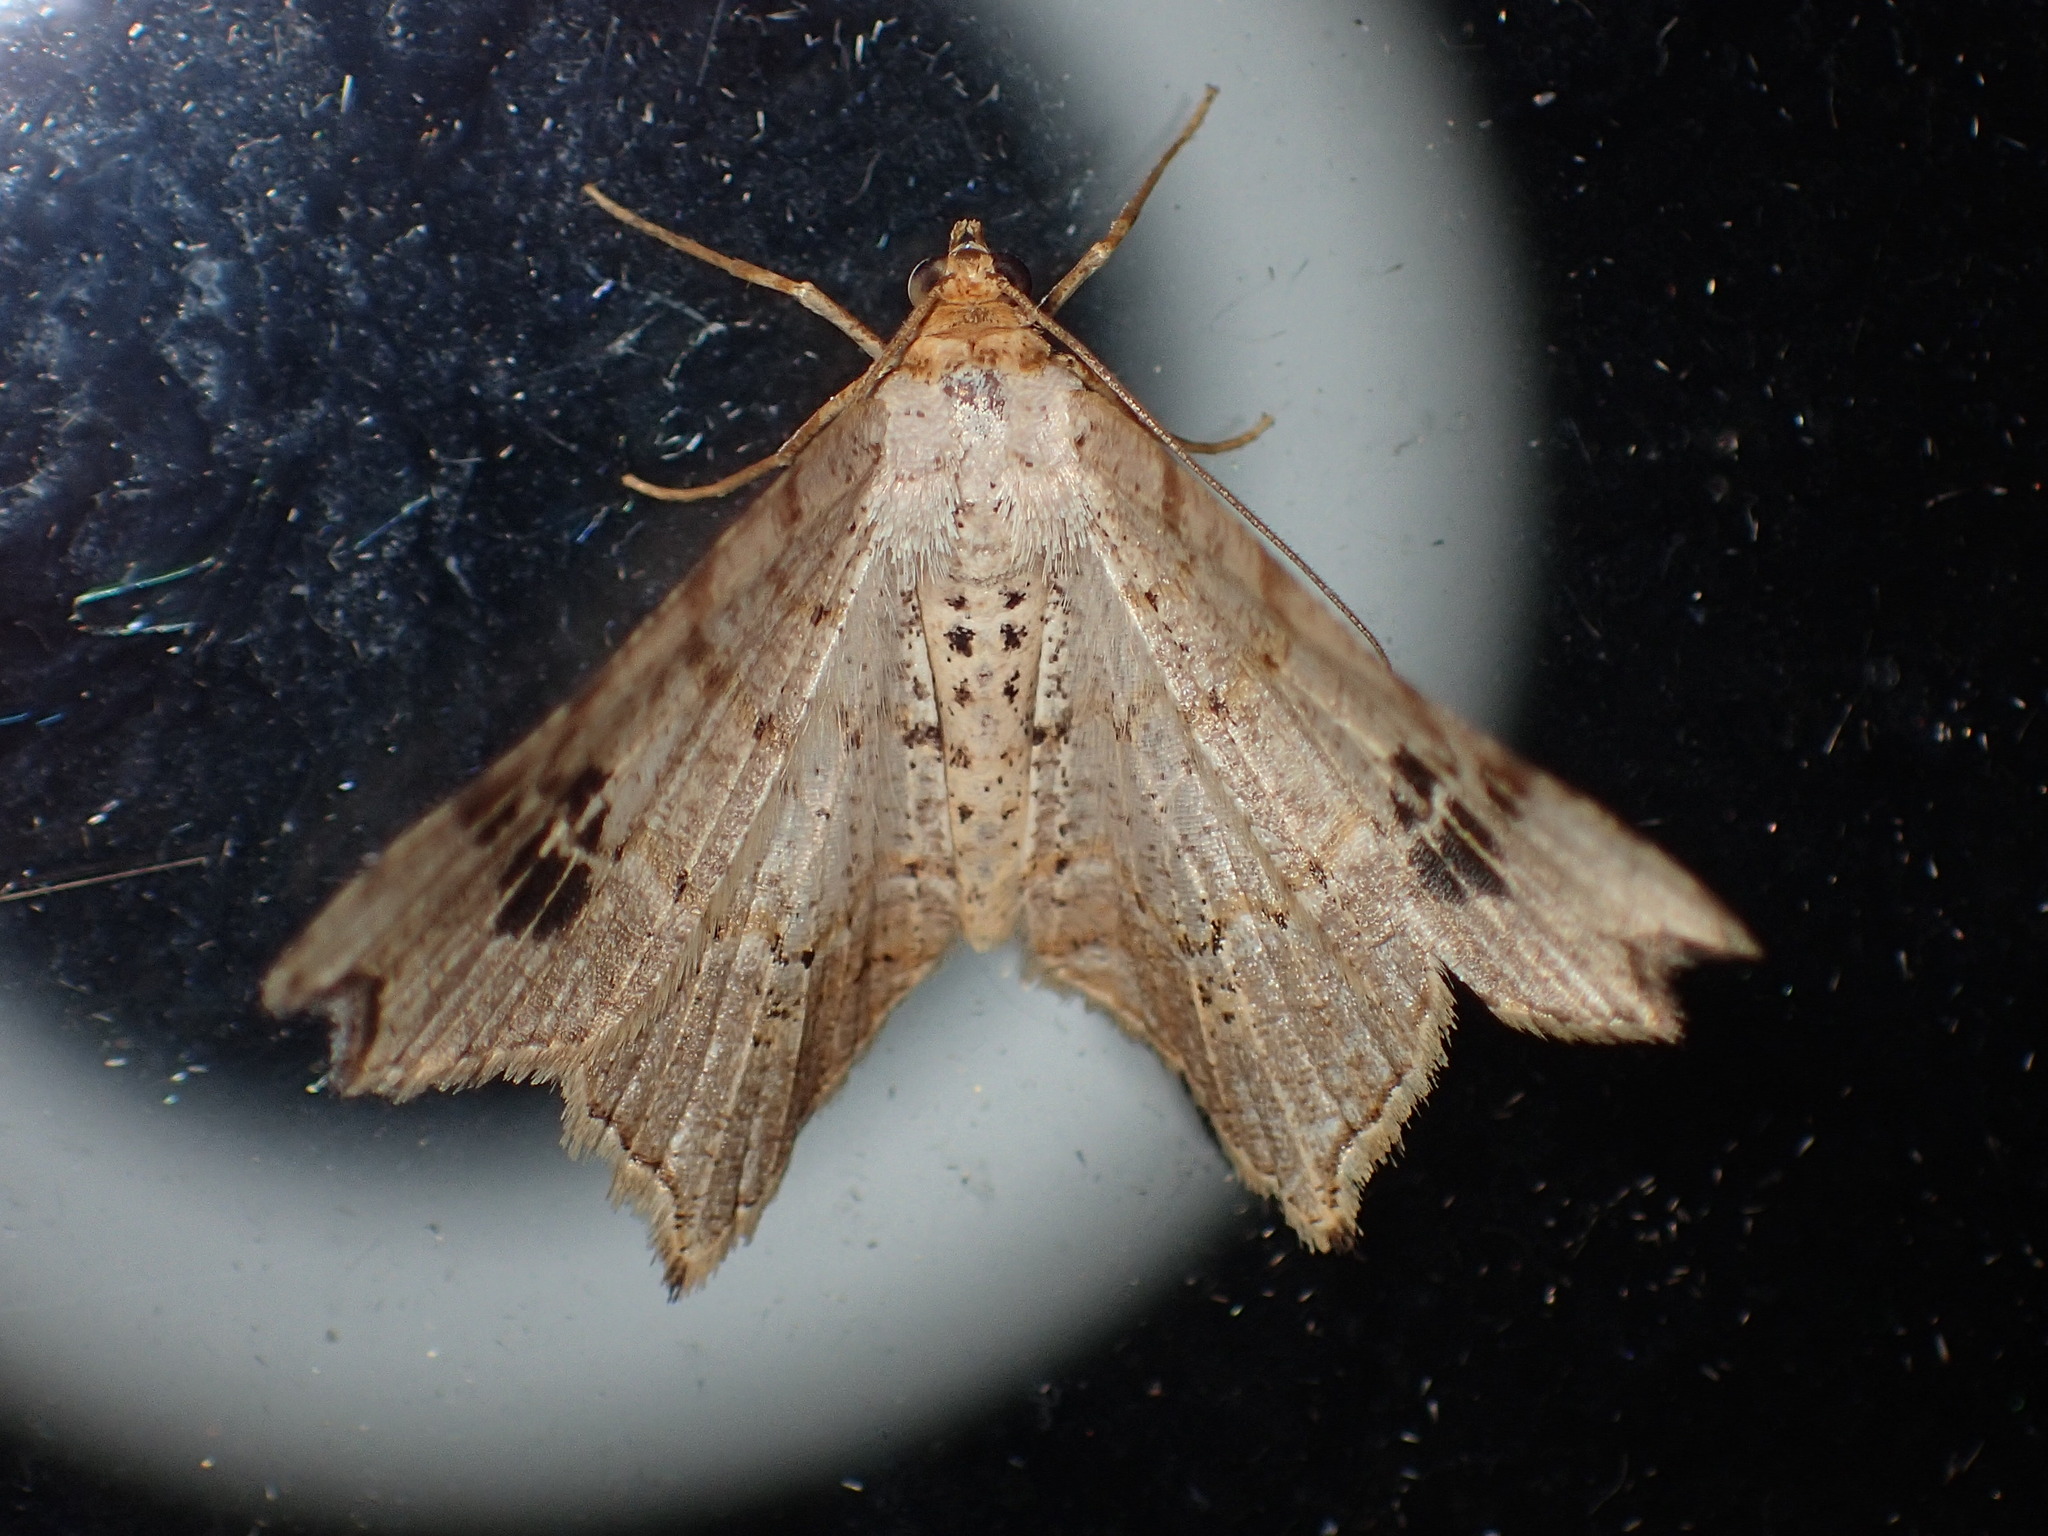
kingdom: Animalia
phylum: Arthropoda
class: Insecta
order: Lepidoptera
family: Geometridae
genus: Macaria
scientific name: Macaria promiscuata
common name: Promiscuous angle
